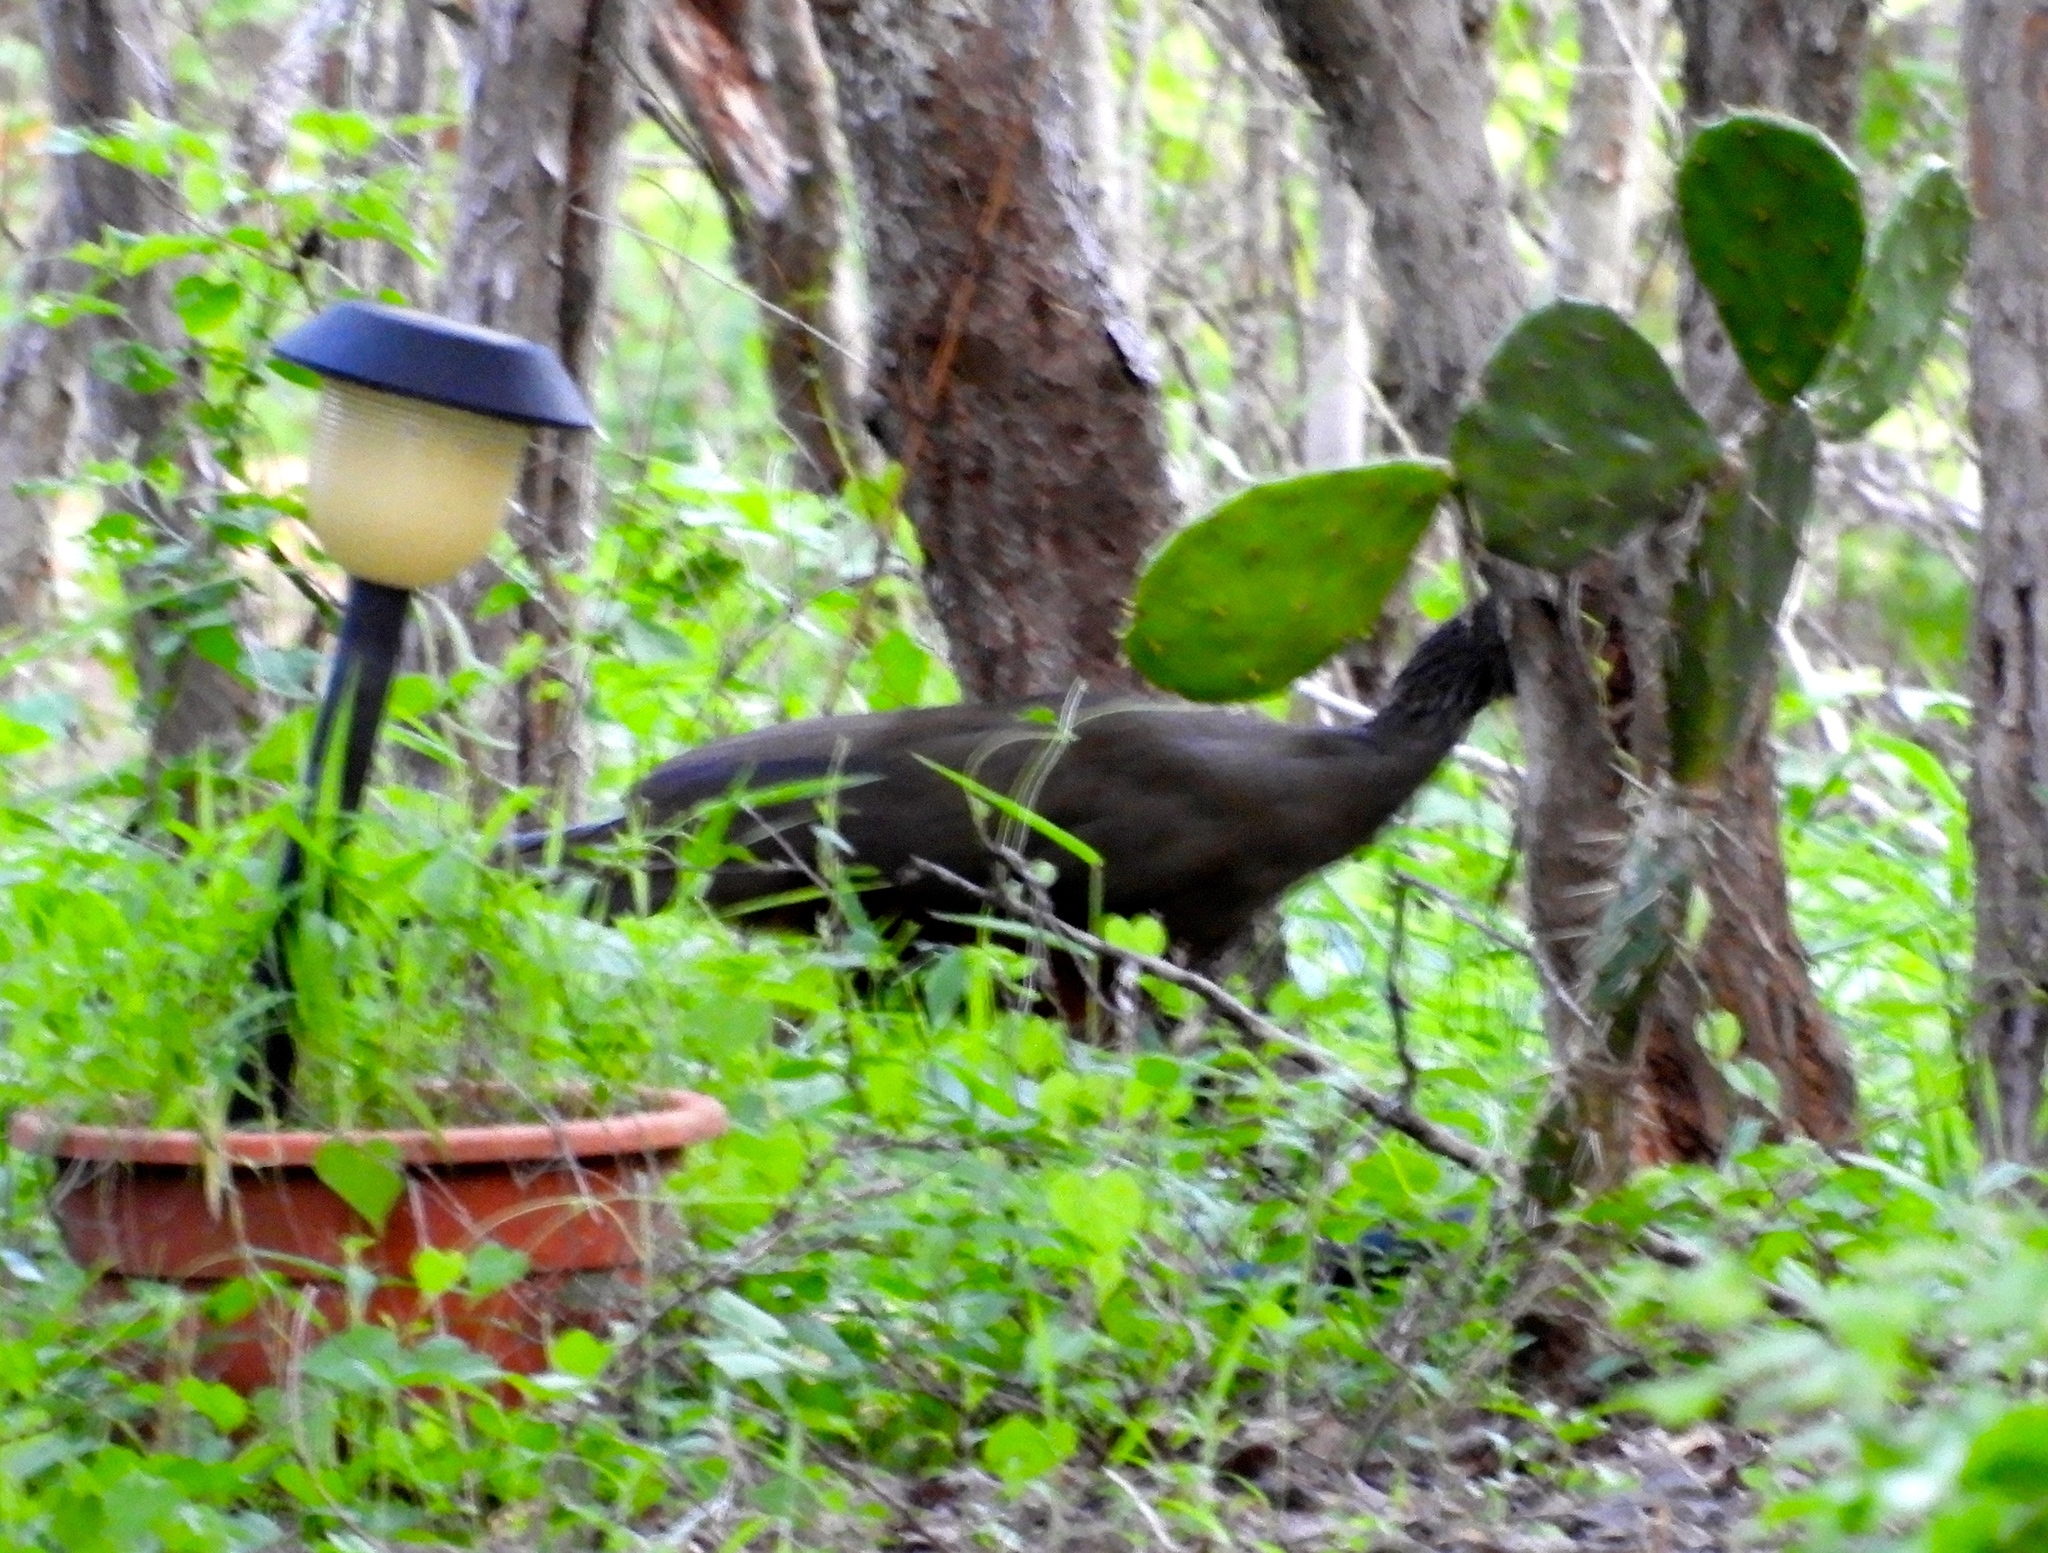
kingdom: Animalia
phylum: Chordata
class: Aves
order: Galliformes
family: Cracidae
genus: Ortalis
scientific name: Ortalis wagleri
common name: Rufous-bellied chachalaca
